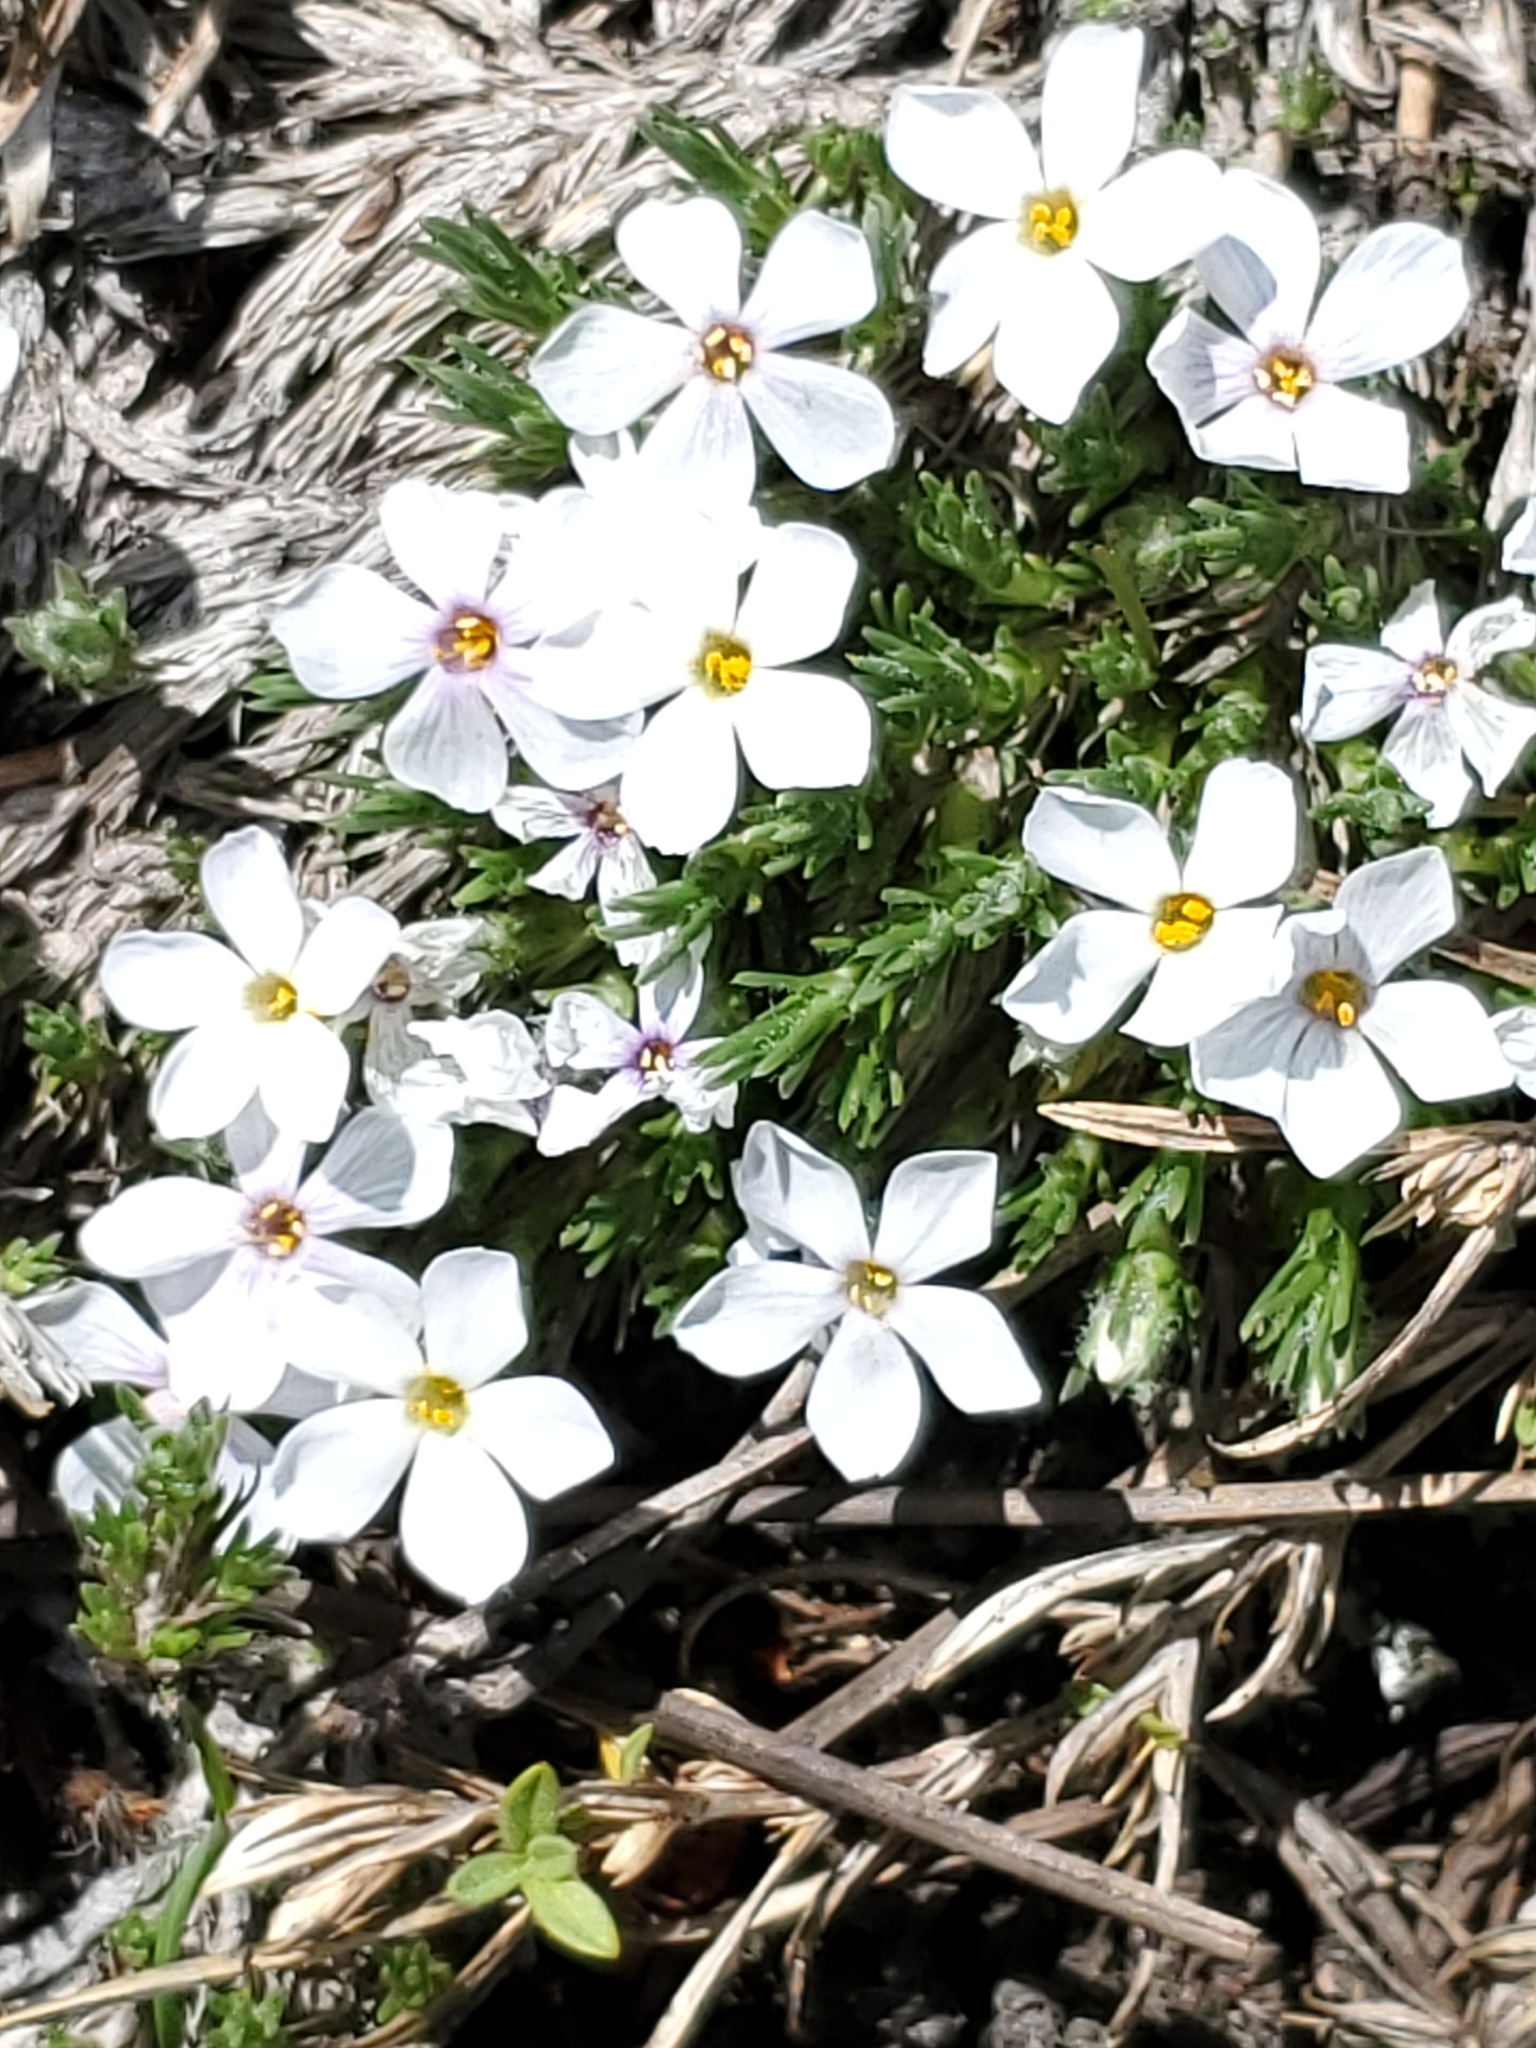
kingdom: Plantae
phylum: Tracheophyta
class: Magnoliopsida
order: Ericales
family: Polemoniaceae
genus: Phlox
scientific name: Phlox hoodii
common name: Moss phlox
